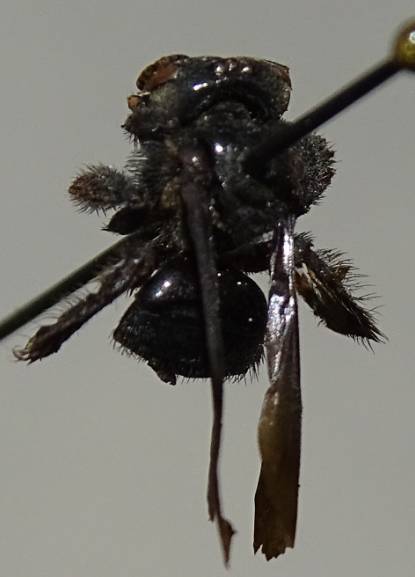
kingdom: Animalia
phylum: Arthropoda
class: Insecta
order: Hymenoptera
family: Apidae
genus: Trigona
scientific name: Trigona corvina
